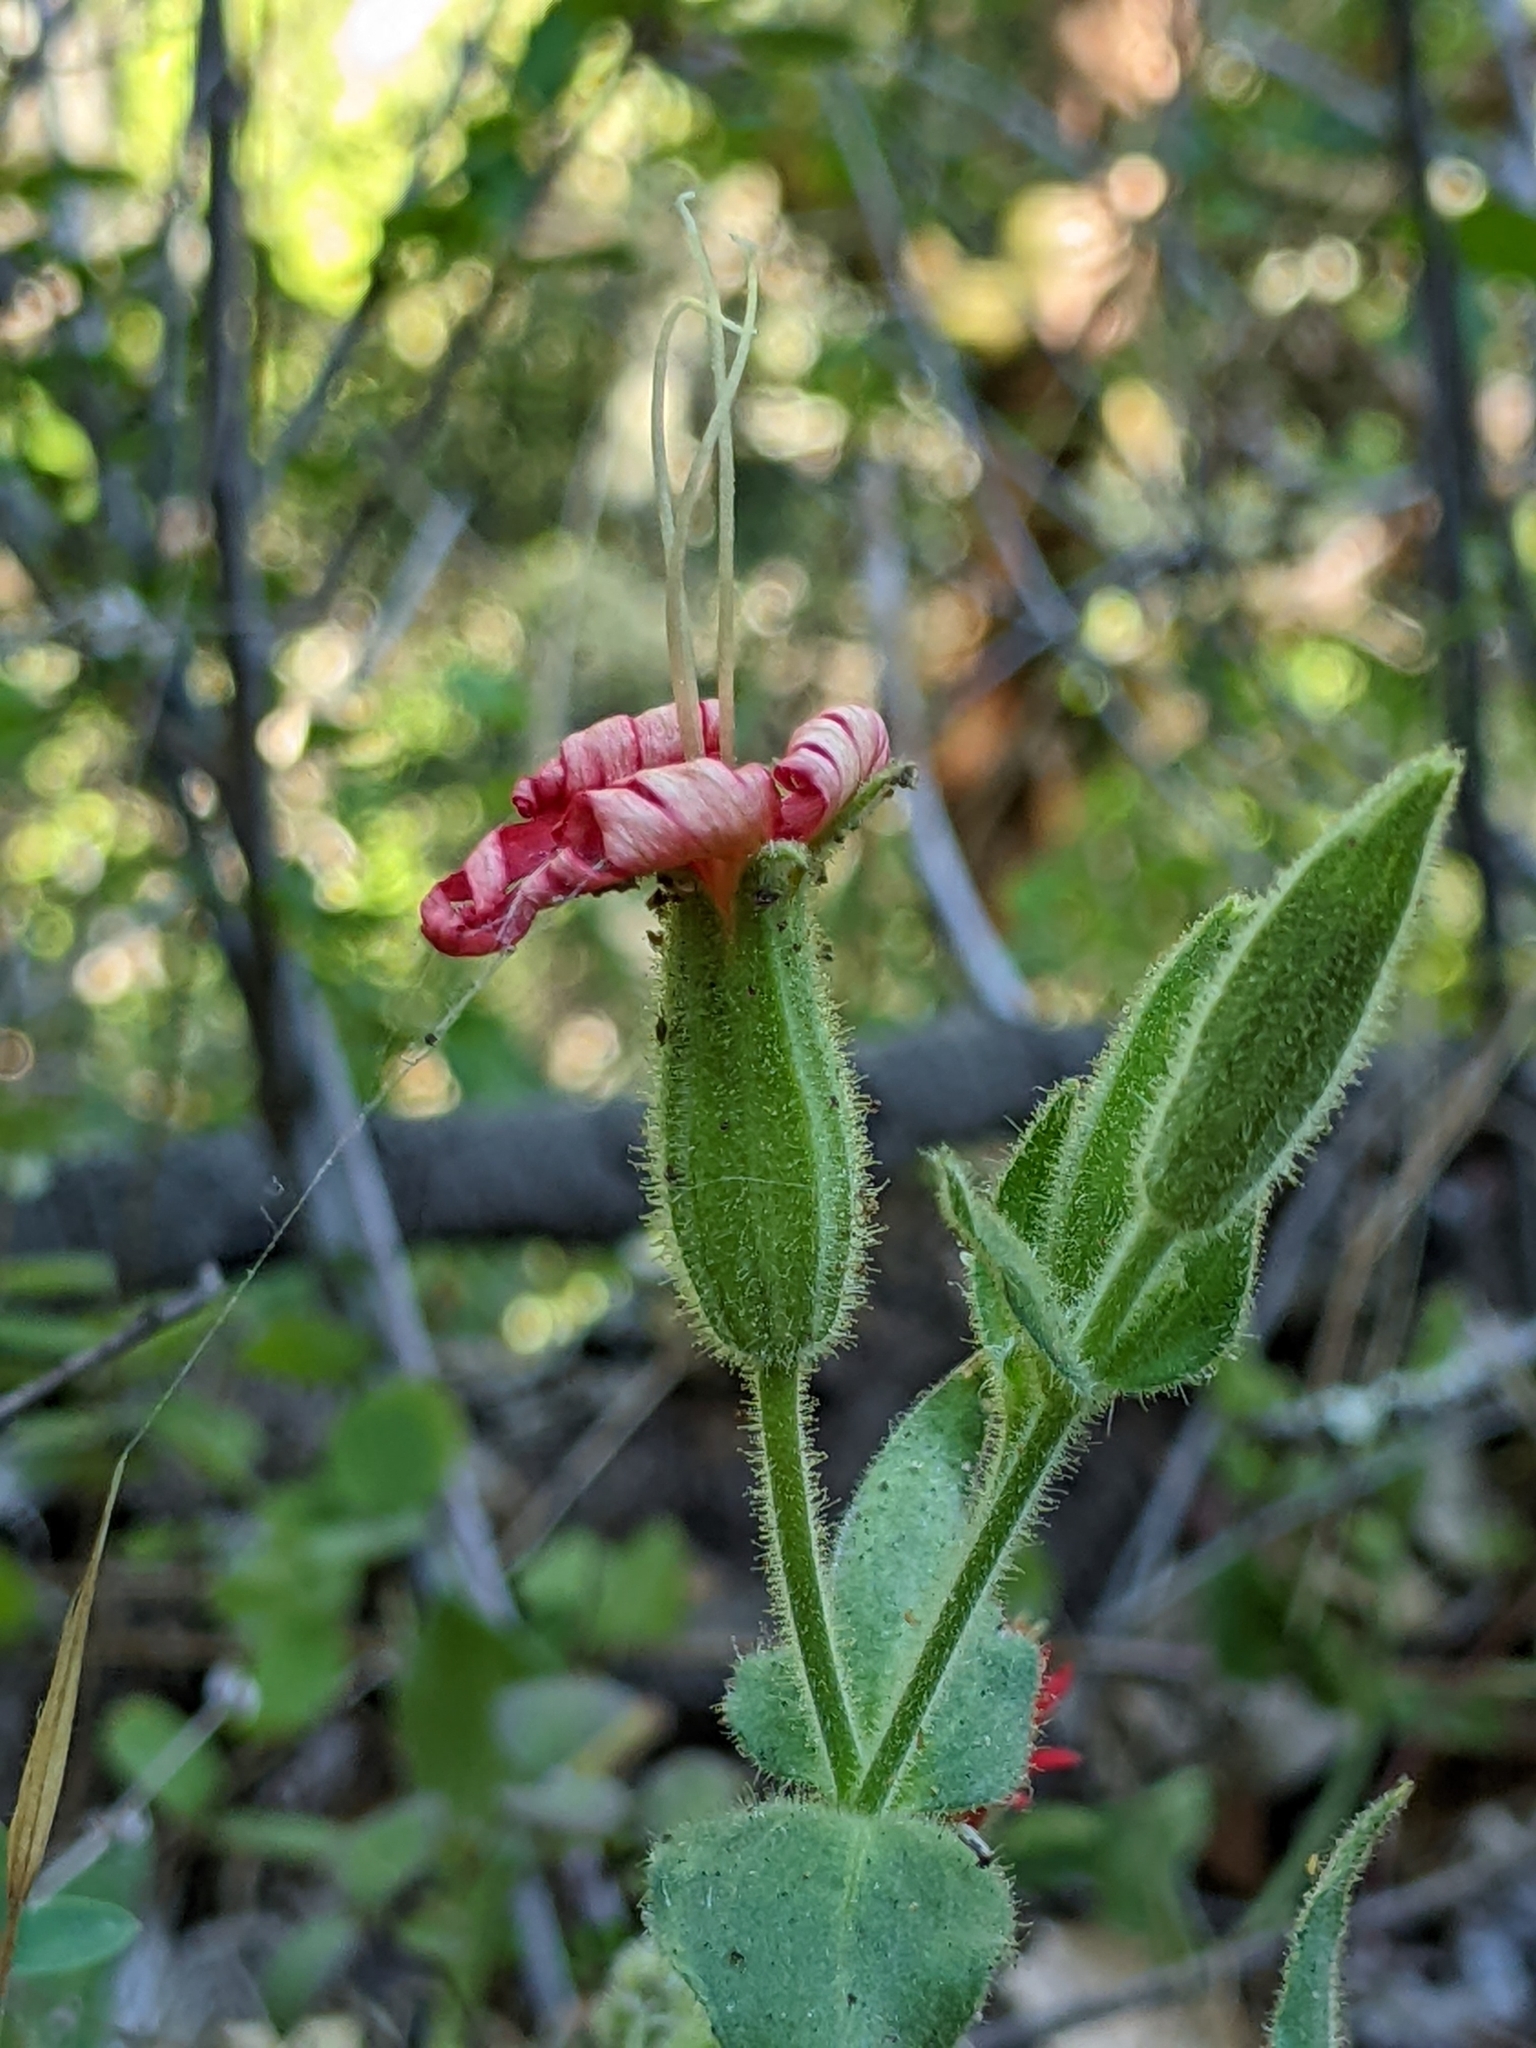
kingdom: Plantae
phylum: Tracheophyta
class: Magnoliopsida
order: Caryophyllales
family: Caryophyllaceae
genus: Silene
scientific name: Silene laciniata
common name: Indian-pink
